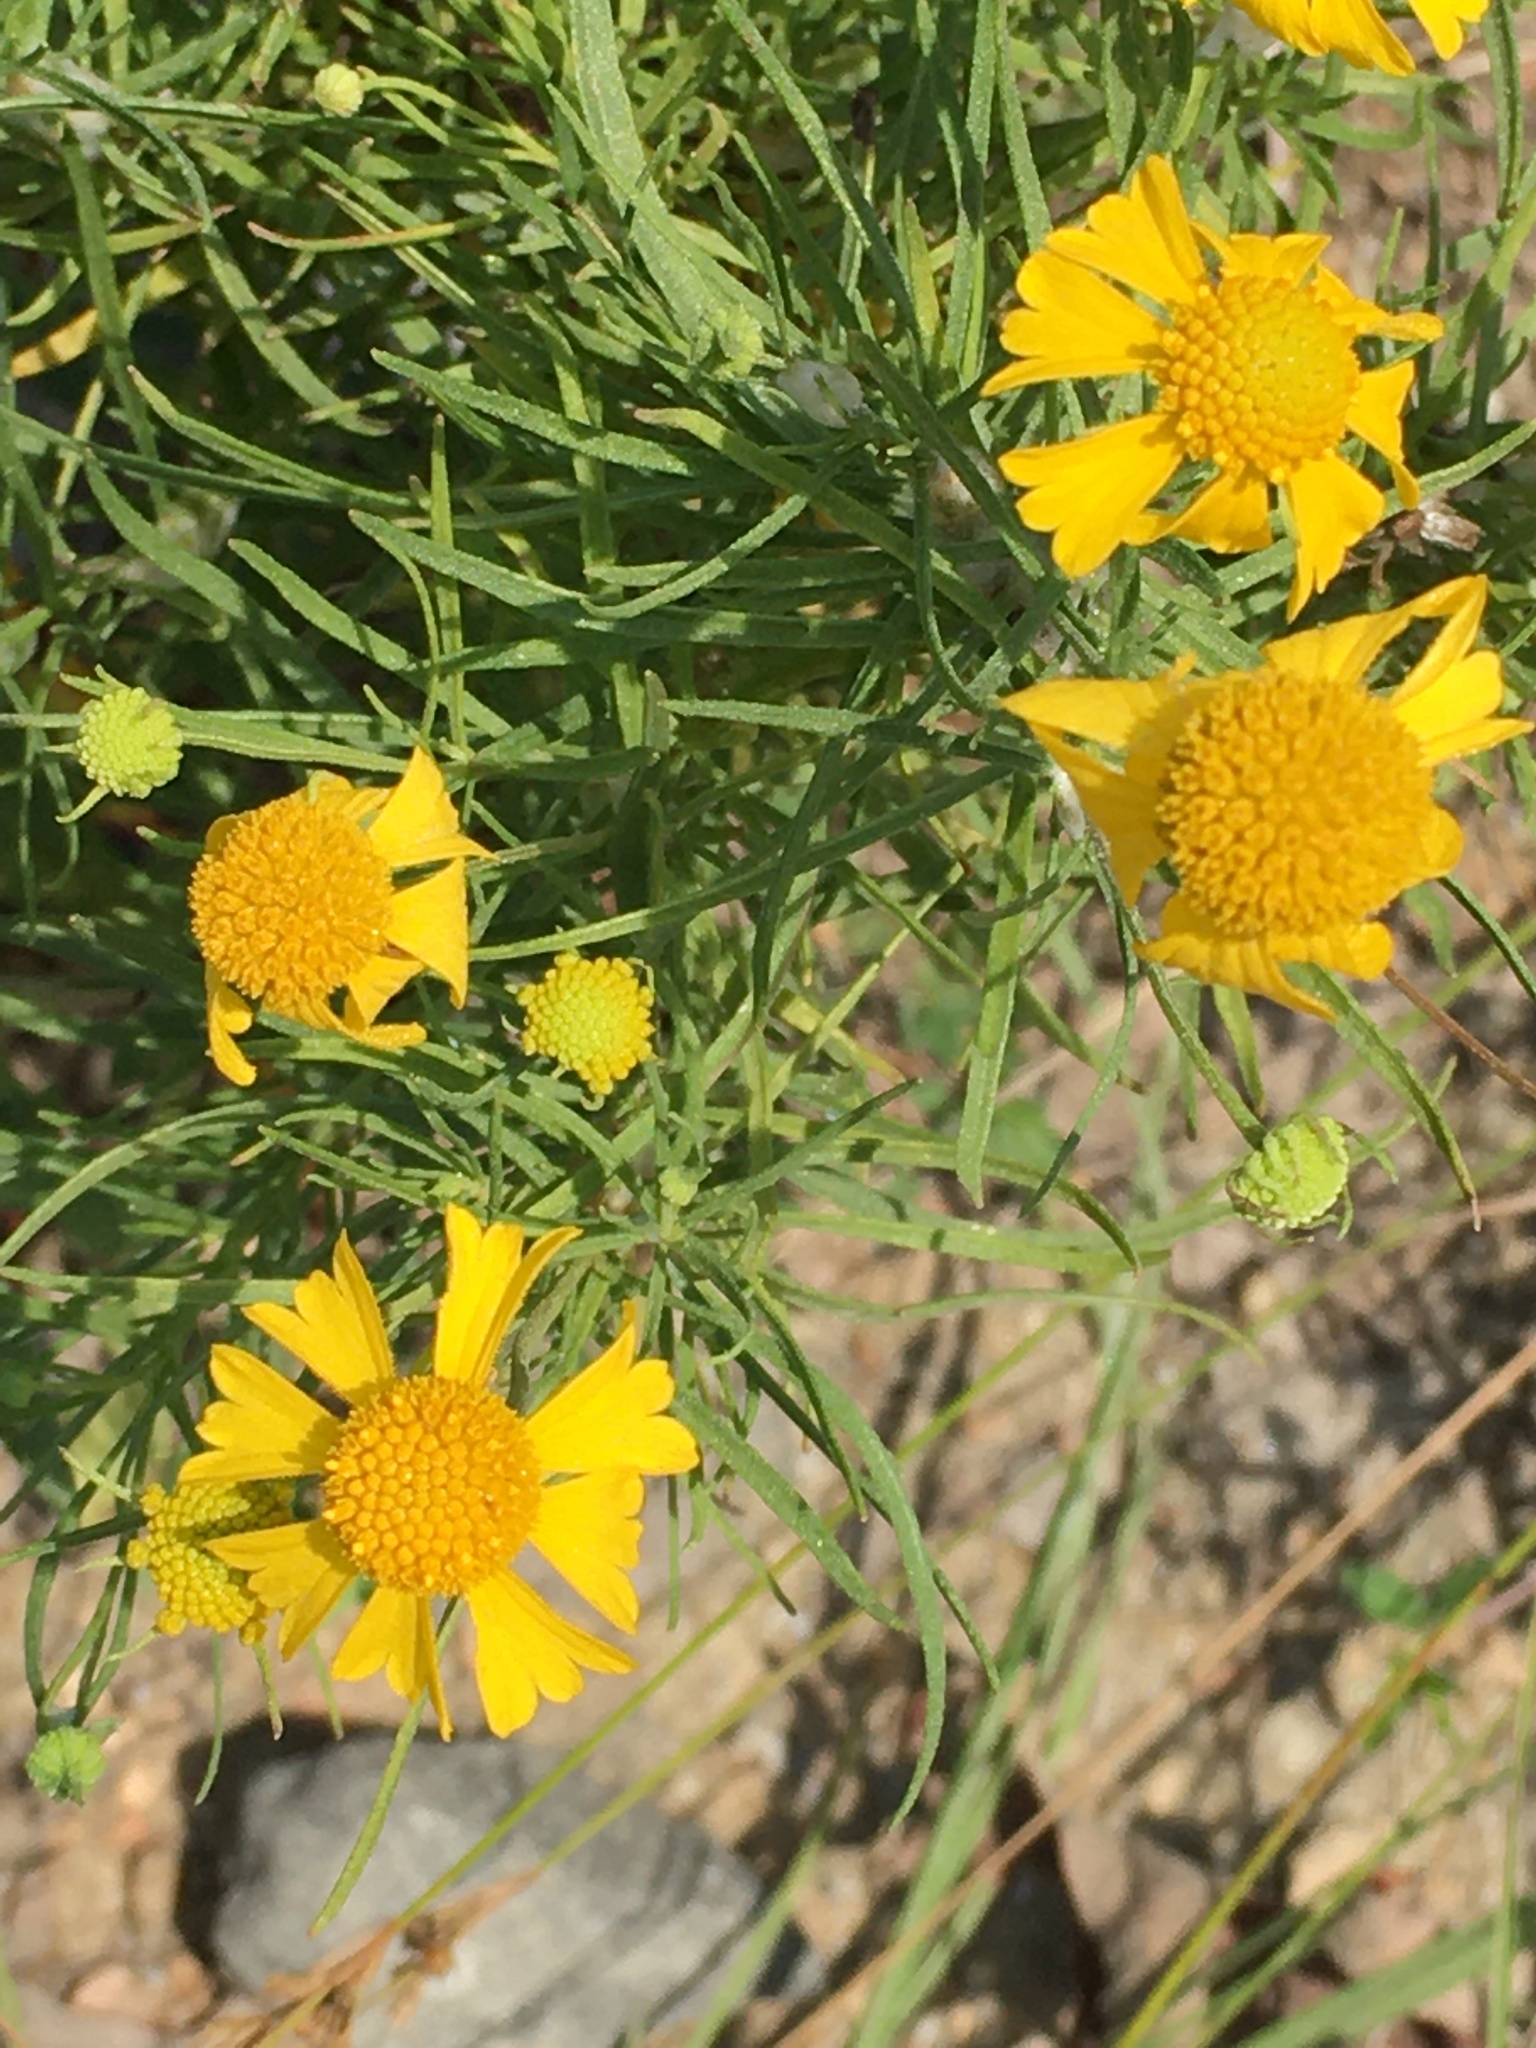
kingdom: Plantae
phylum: Tracheophyta
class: Magnoliopsida
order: Asterales
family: Asteraceae
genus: Helenium
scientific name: Helenium amarum
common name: Bitter sneezeweed
